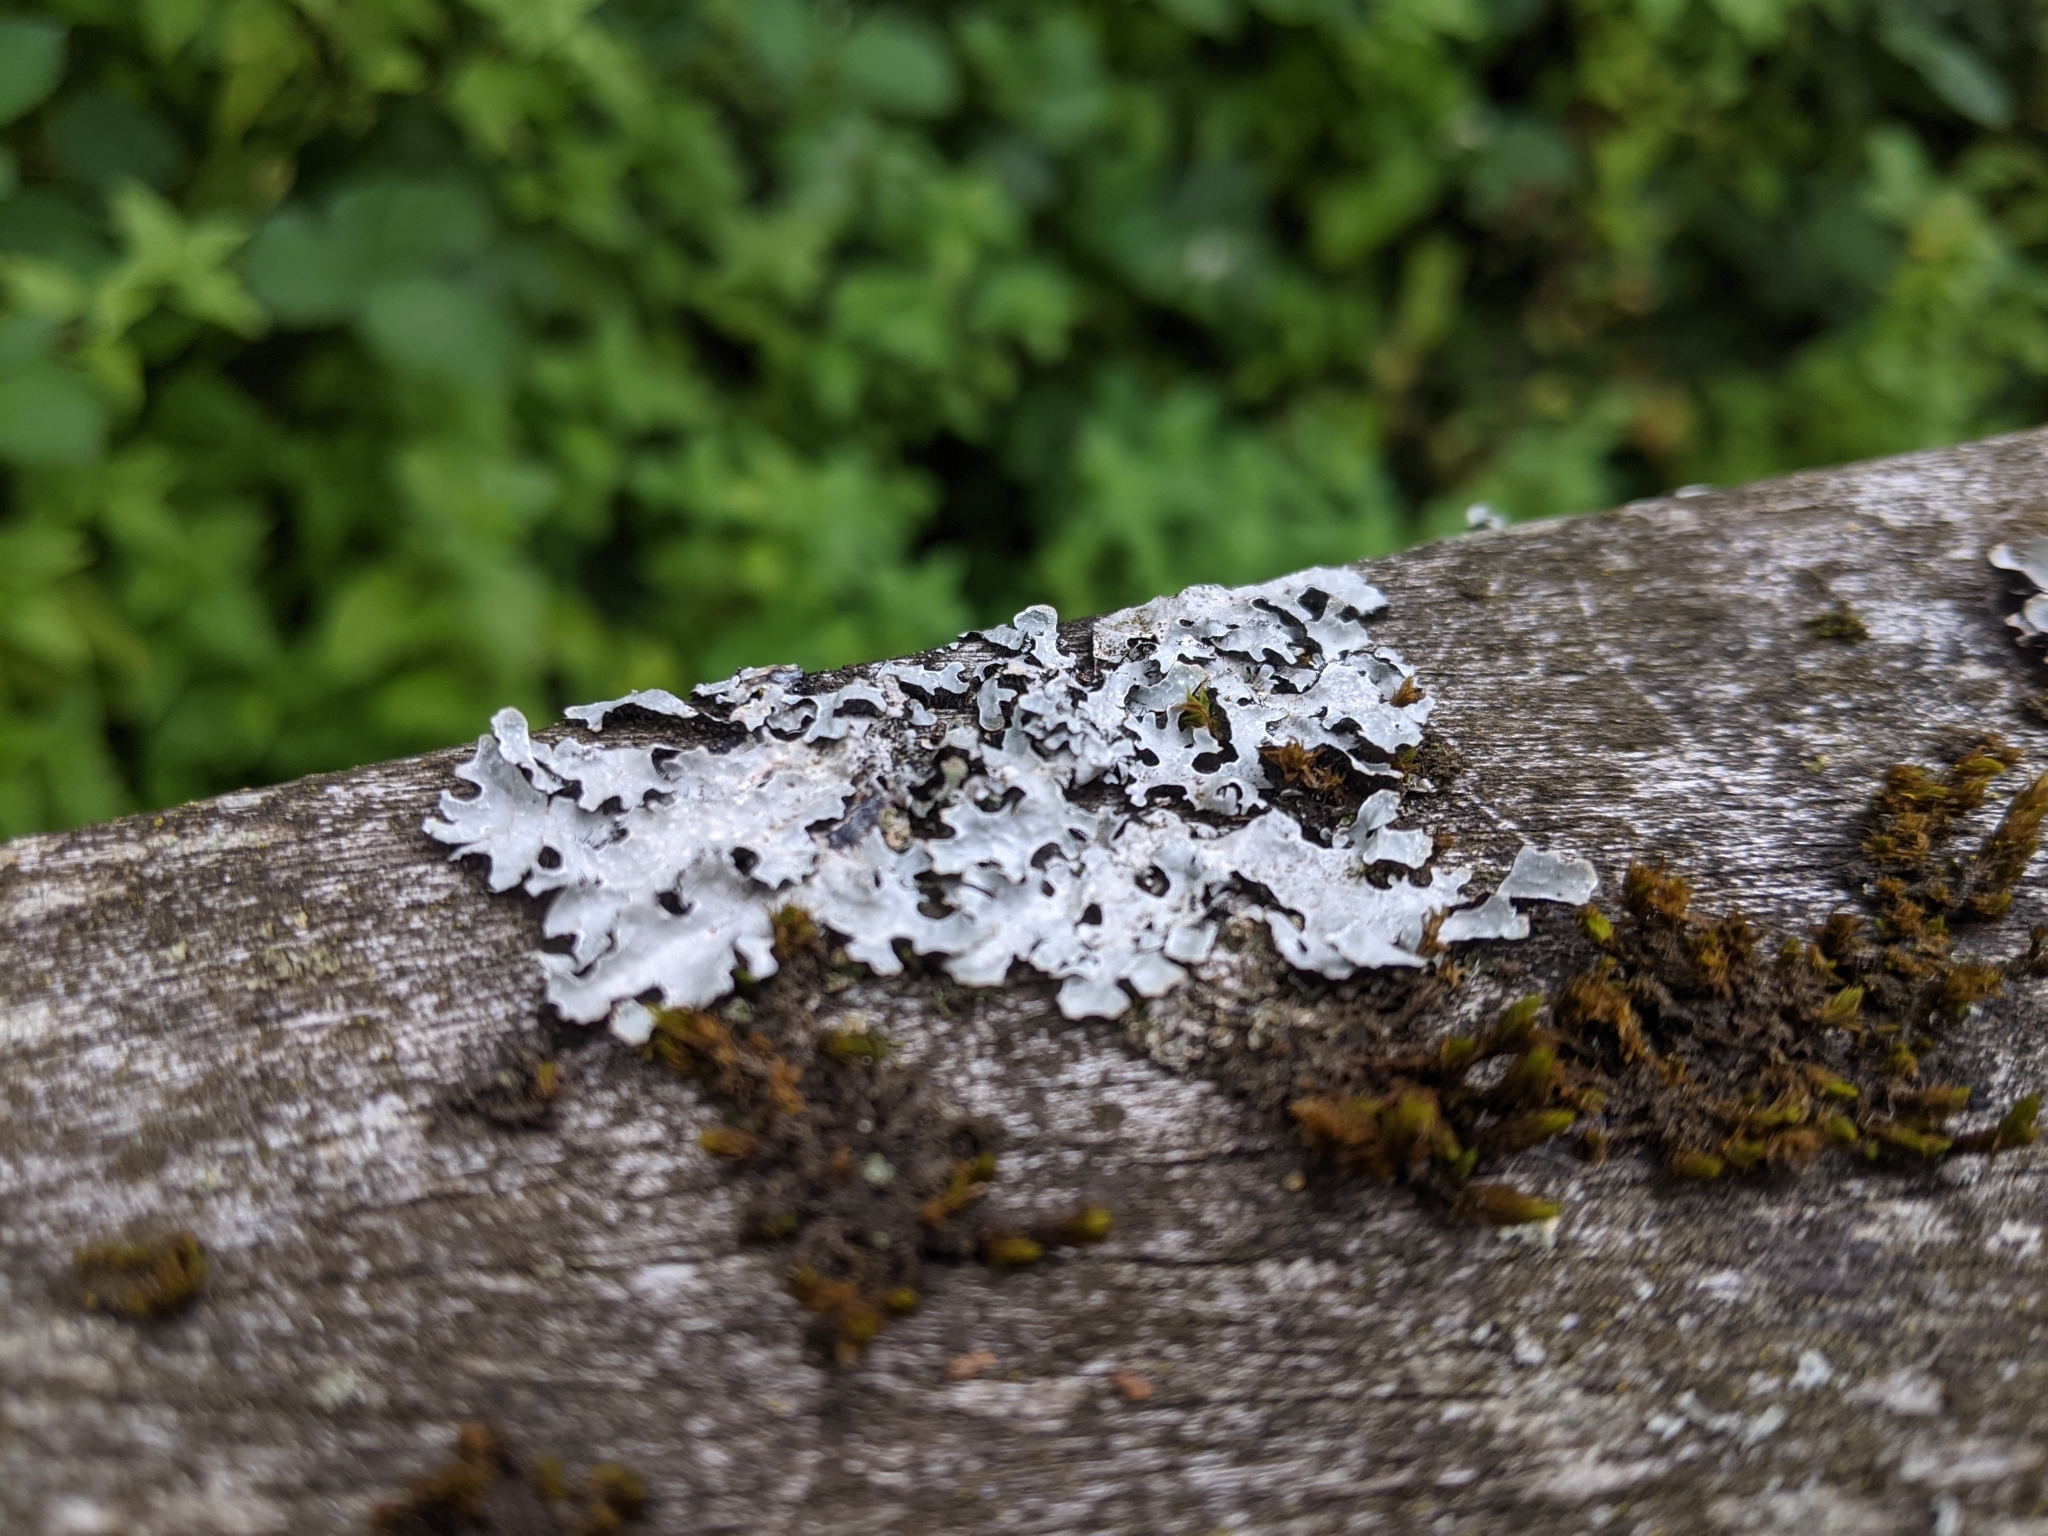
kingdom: Fungi
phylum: Ascomycota
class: Lecanoromycetes
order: Lecanorales
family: Parmeliaceae
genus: Parmelia
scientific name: Parmelia sulcata
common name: Netted shield lichen
